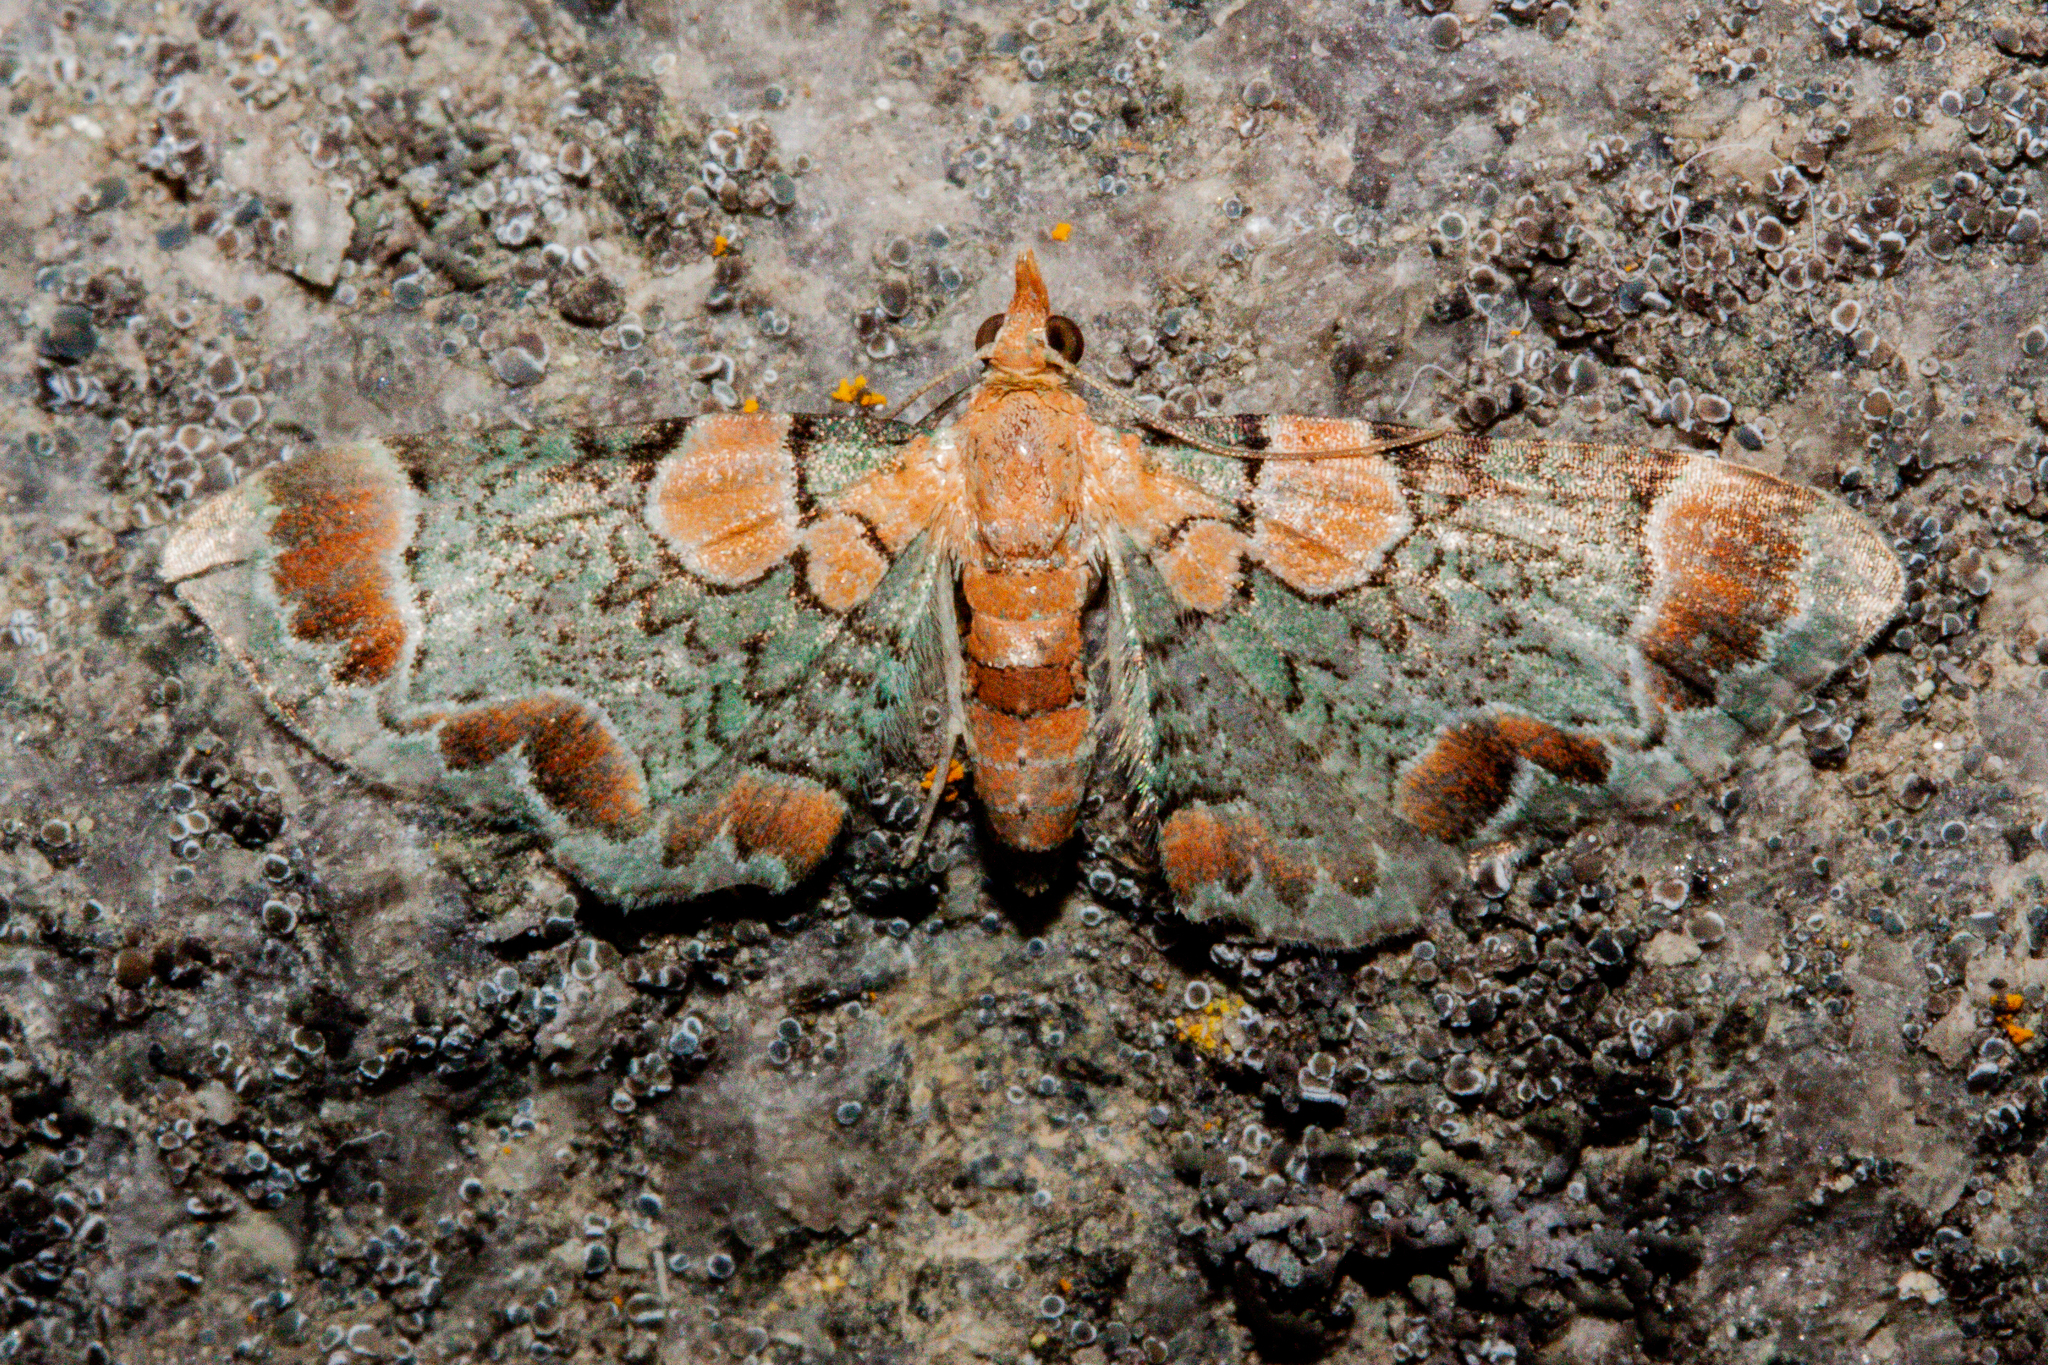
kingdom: Animalia
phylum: Arthropoda
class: Insecta
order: Lepidoptera
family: Geometridae
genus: Chloroclystis
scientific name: Chloroclystis
